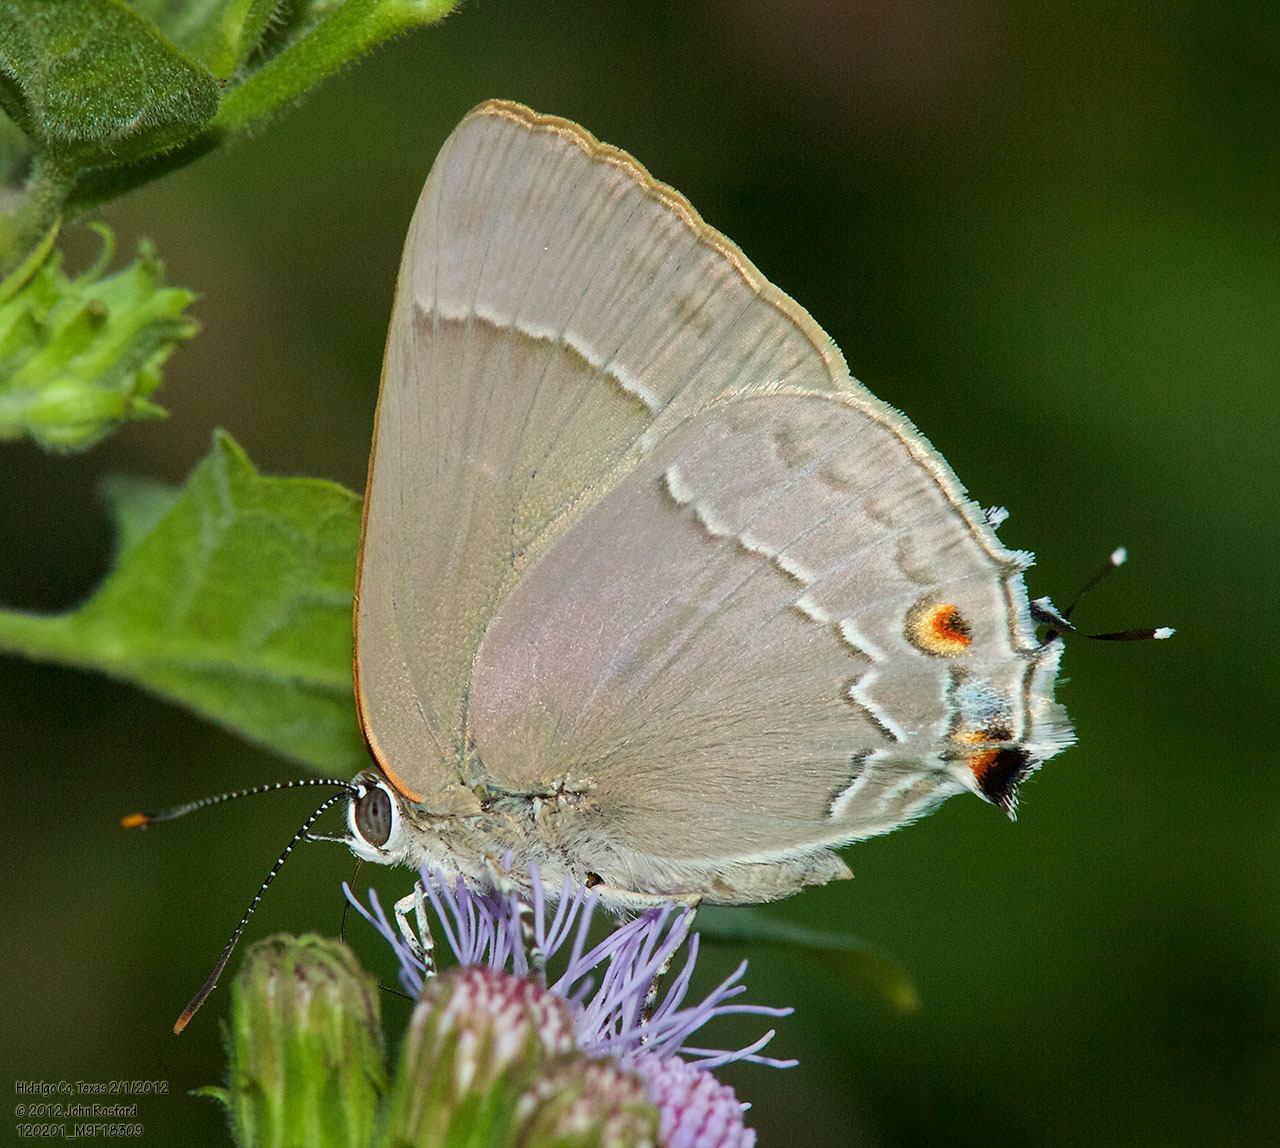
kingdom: Animalia
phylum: Arthropoda
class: Insecta
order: Lepidoptera
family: Lycaenidae
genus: Thecla
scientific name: Thecla marius
